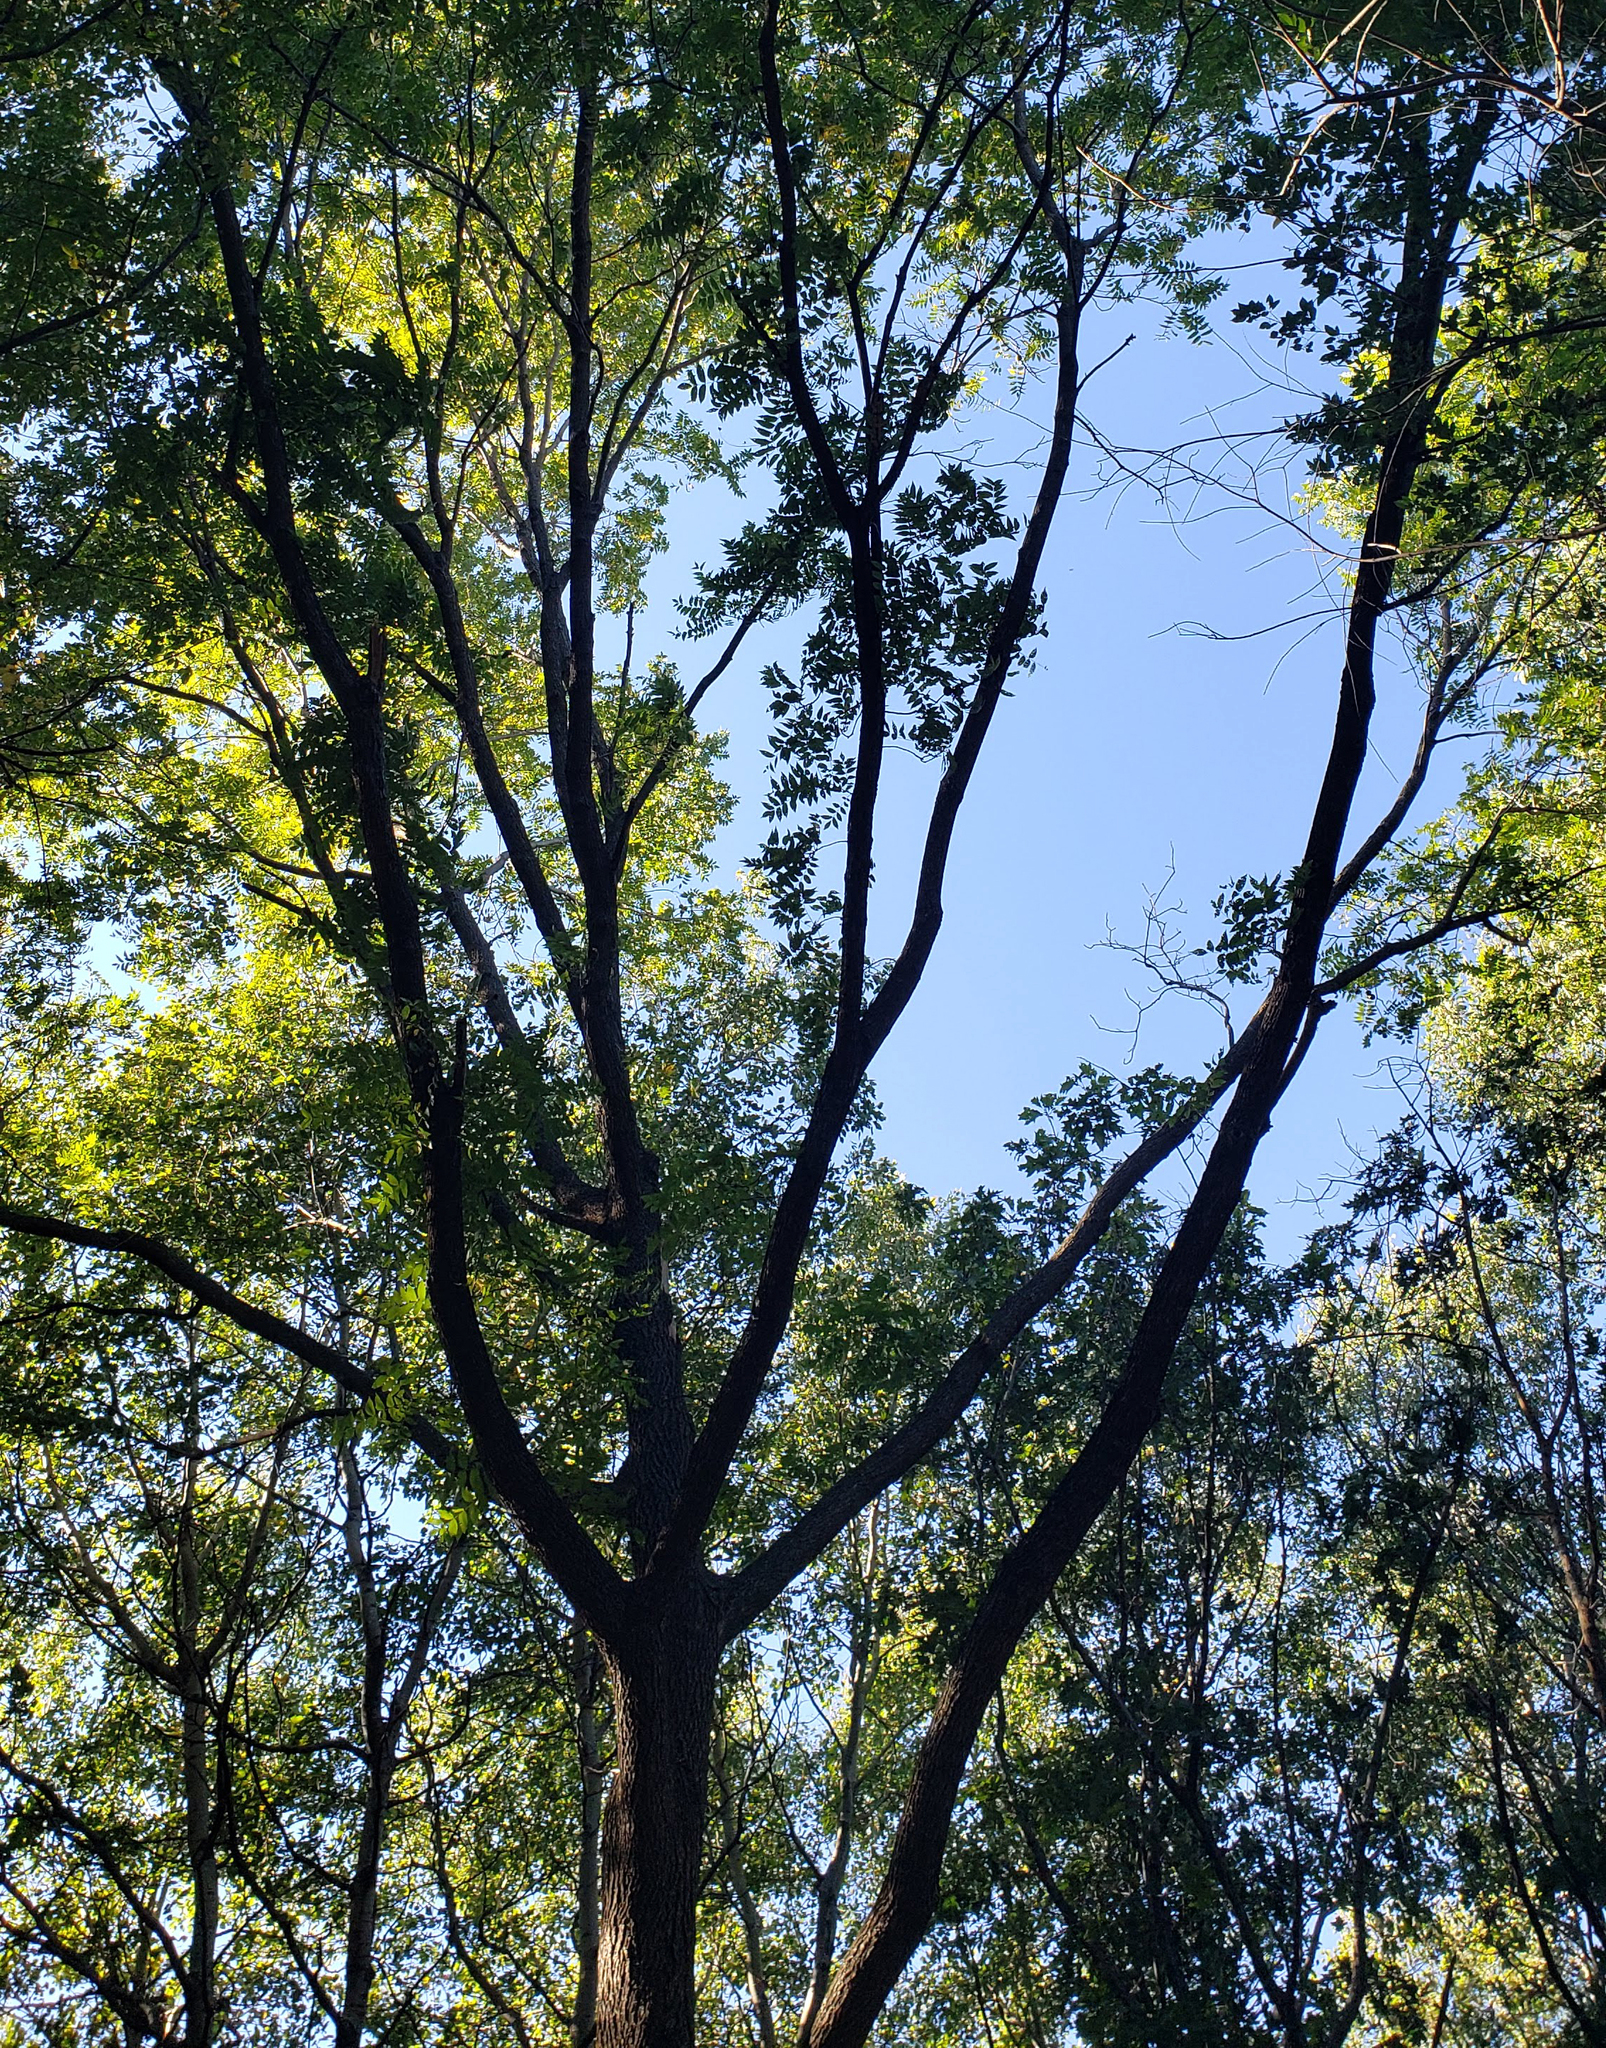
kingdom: Plantae
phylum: Tracheophyta
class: Magnoliopsida
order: Fagales
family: Juglandaceae
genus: Juglans
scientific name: Juglans nigra
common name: Black walnut
